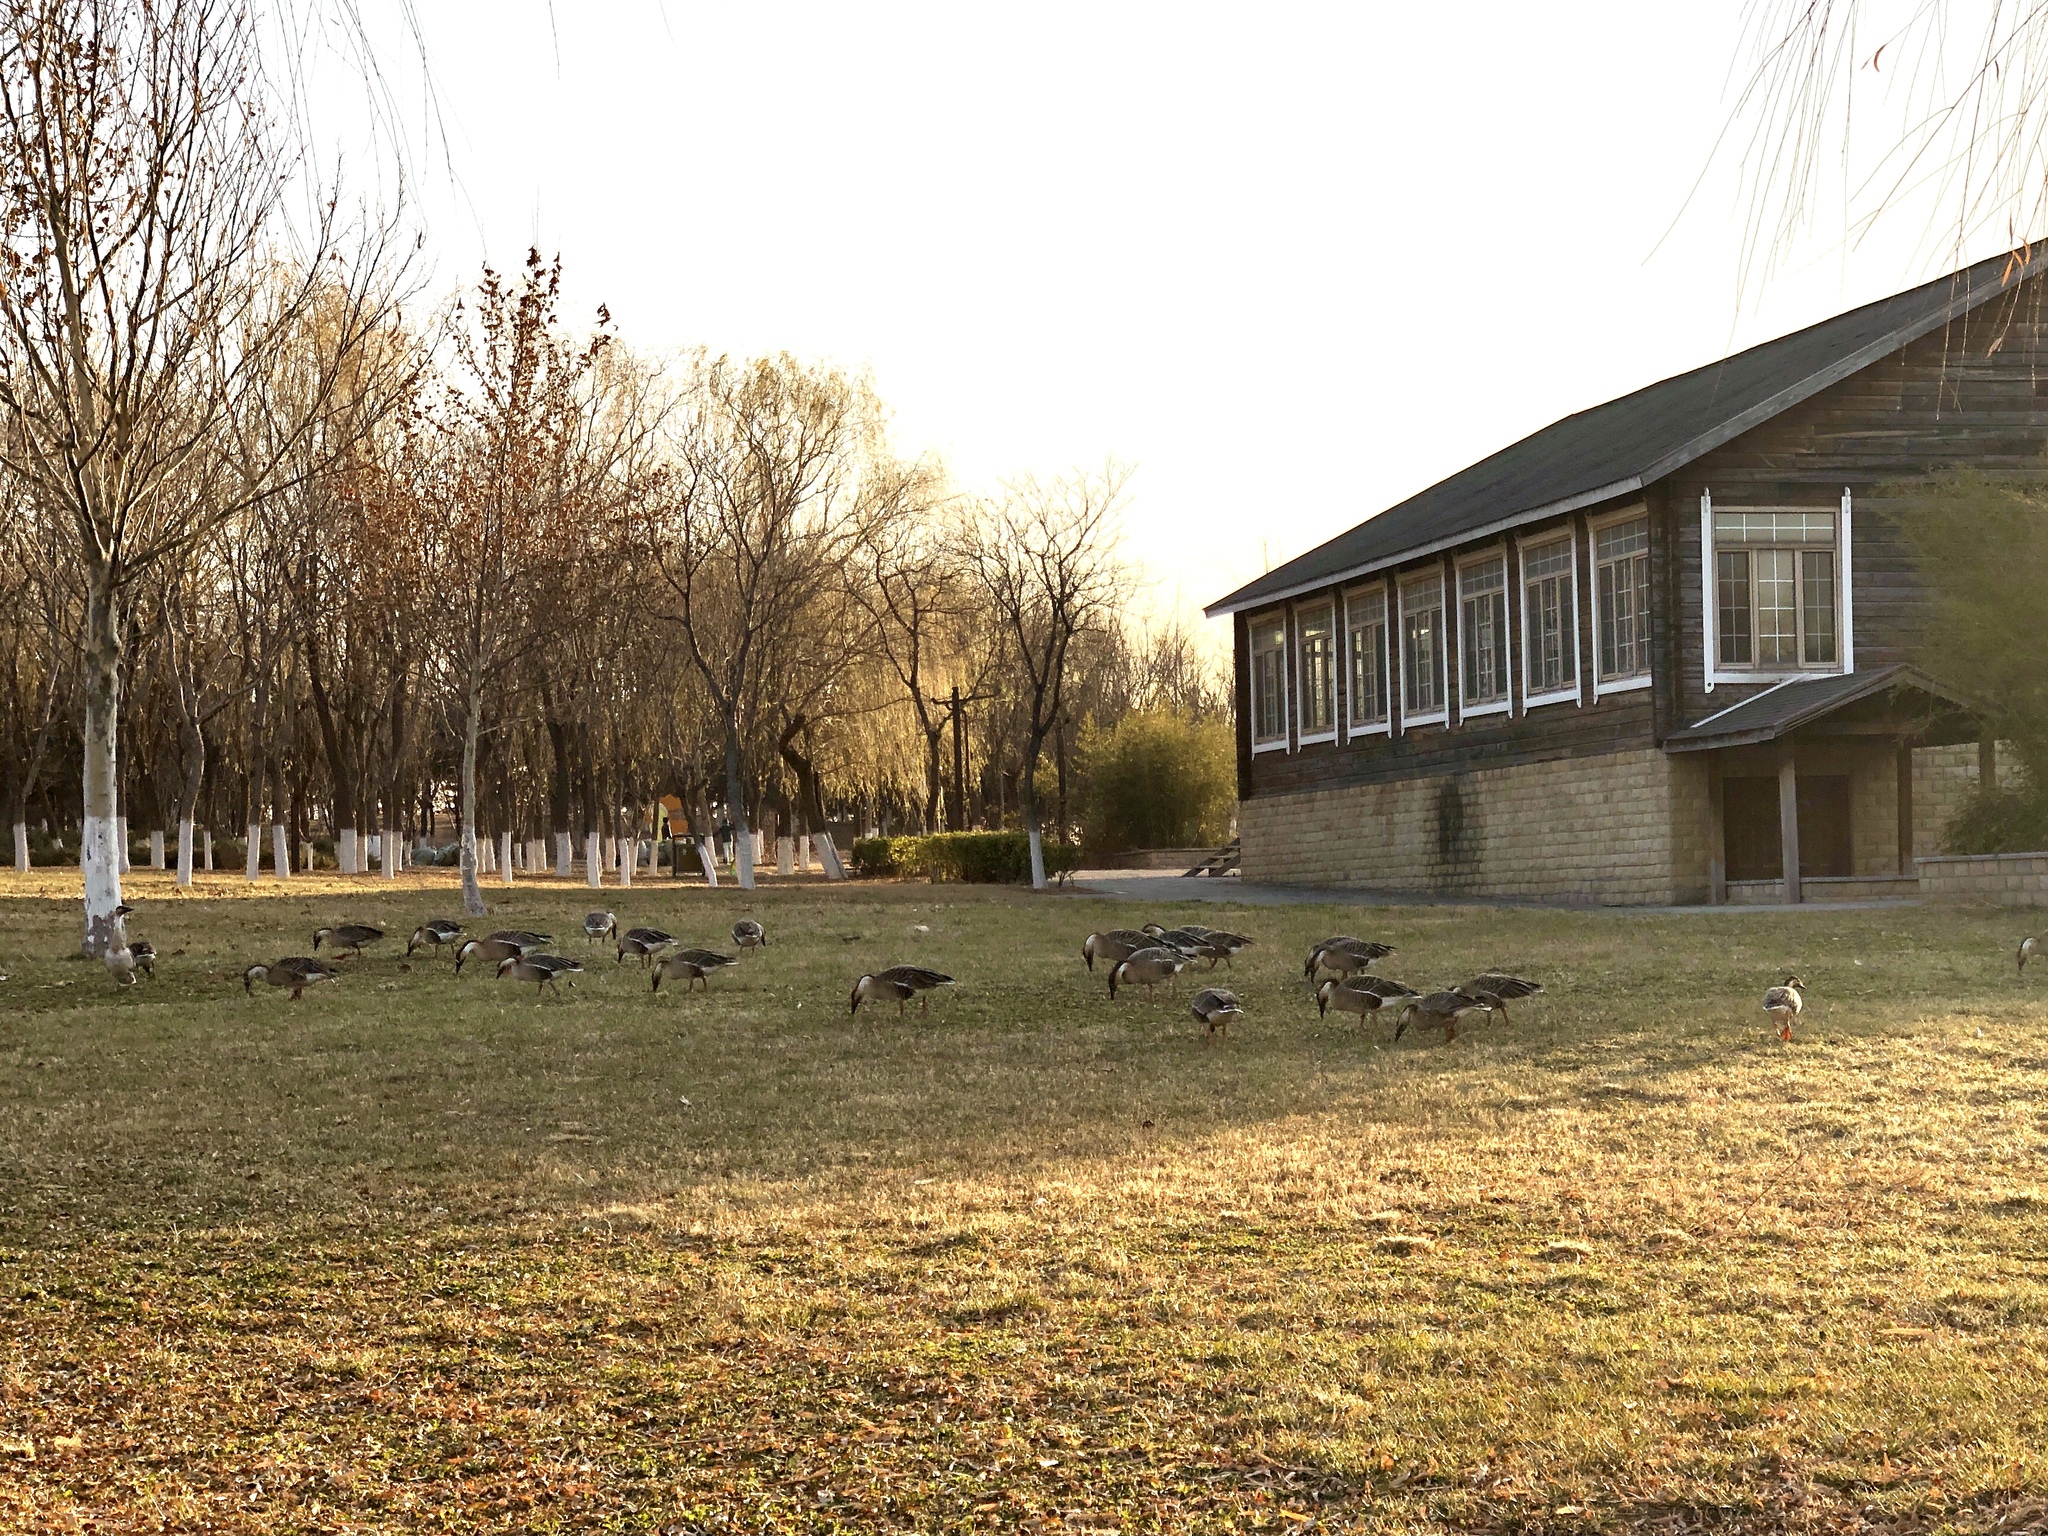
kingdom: Animalia
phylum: Chordata
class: Aves
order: Anseriformes
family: Anatidae
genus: Anser
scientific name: Anser cygnoides
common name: Swan goose
